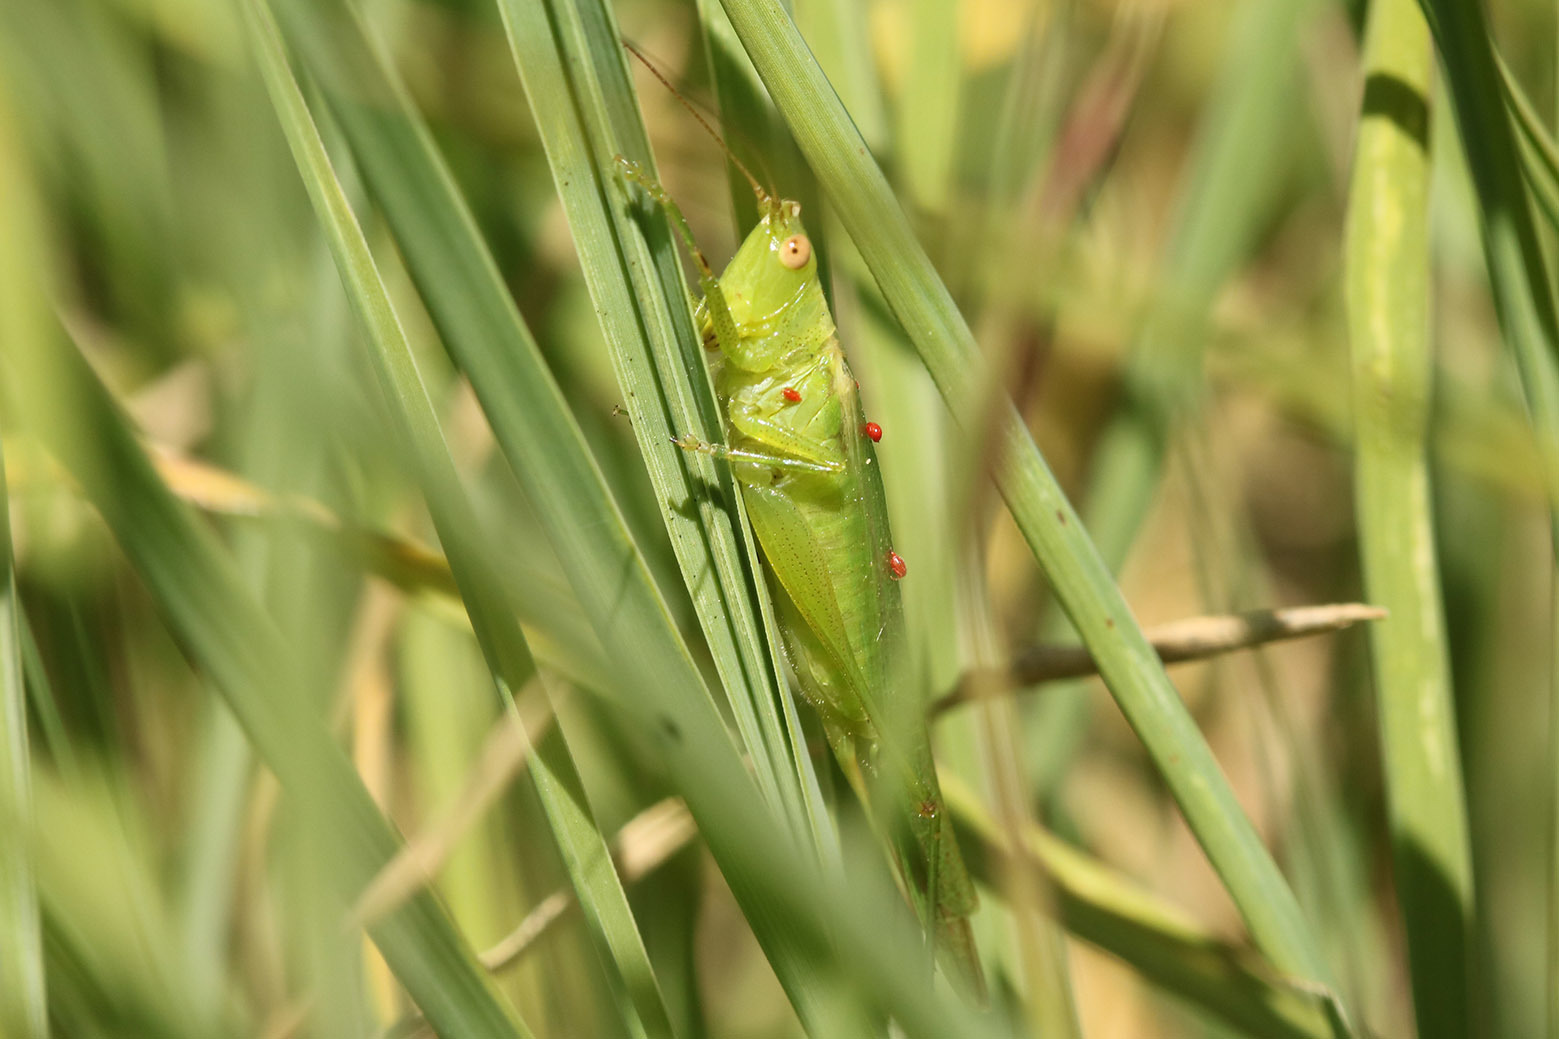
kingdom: Animalia
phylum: Arthropoda
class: Insecta
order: Orthoptera
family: Tettigoniidae
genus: Conocephalus
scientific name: Conocephalus longipes
